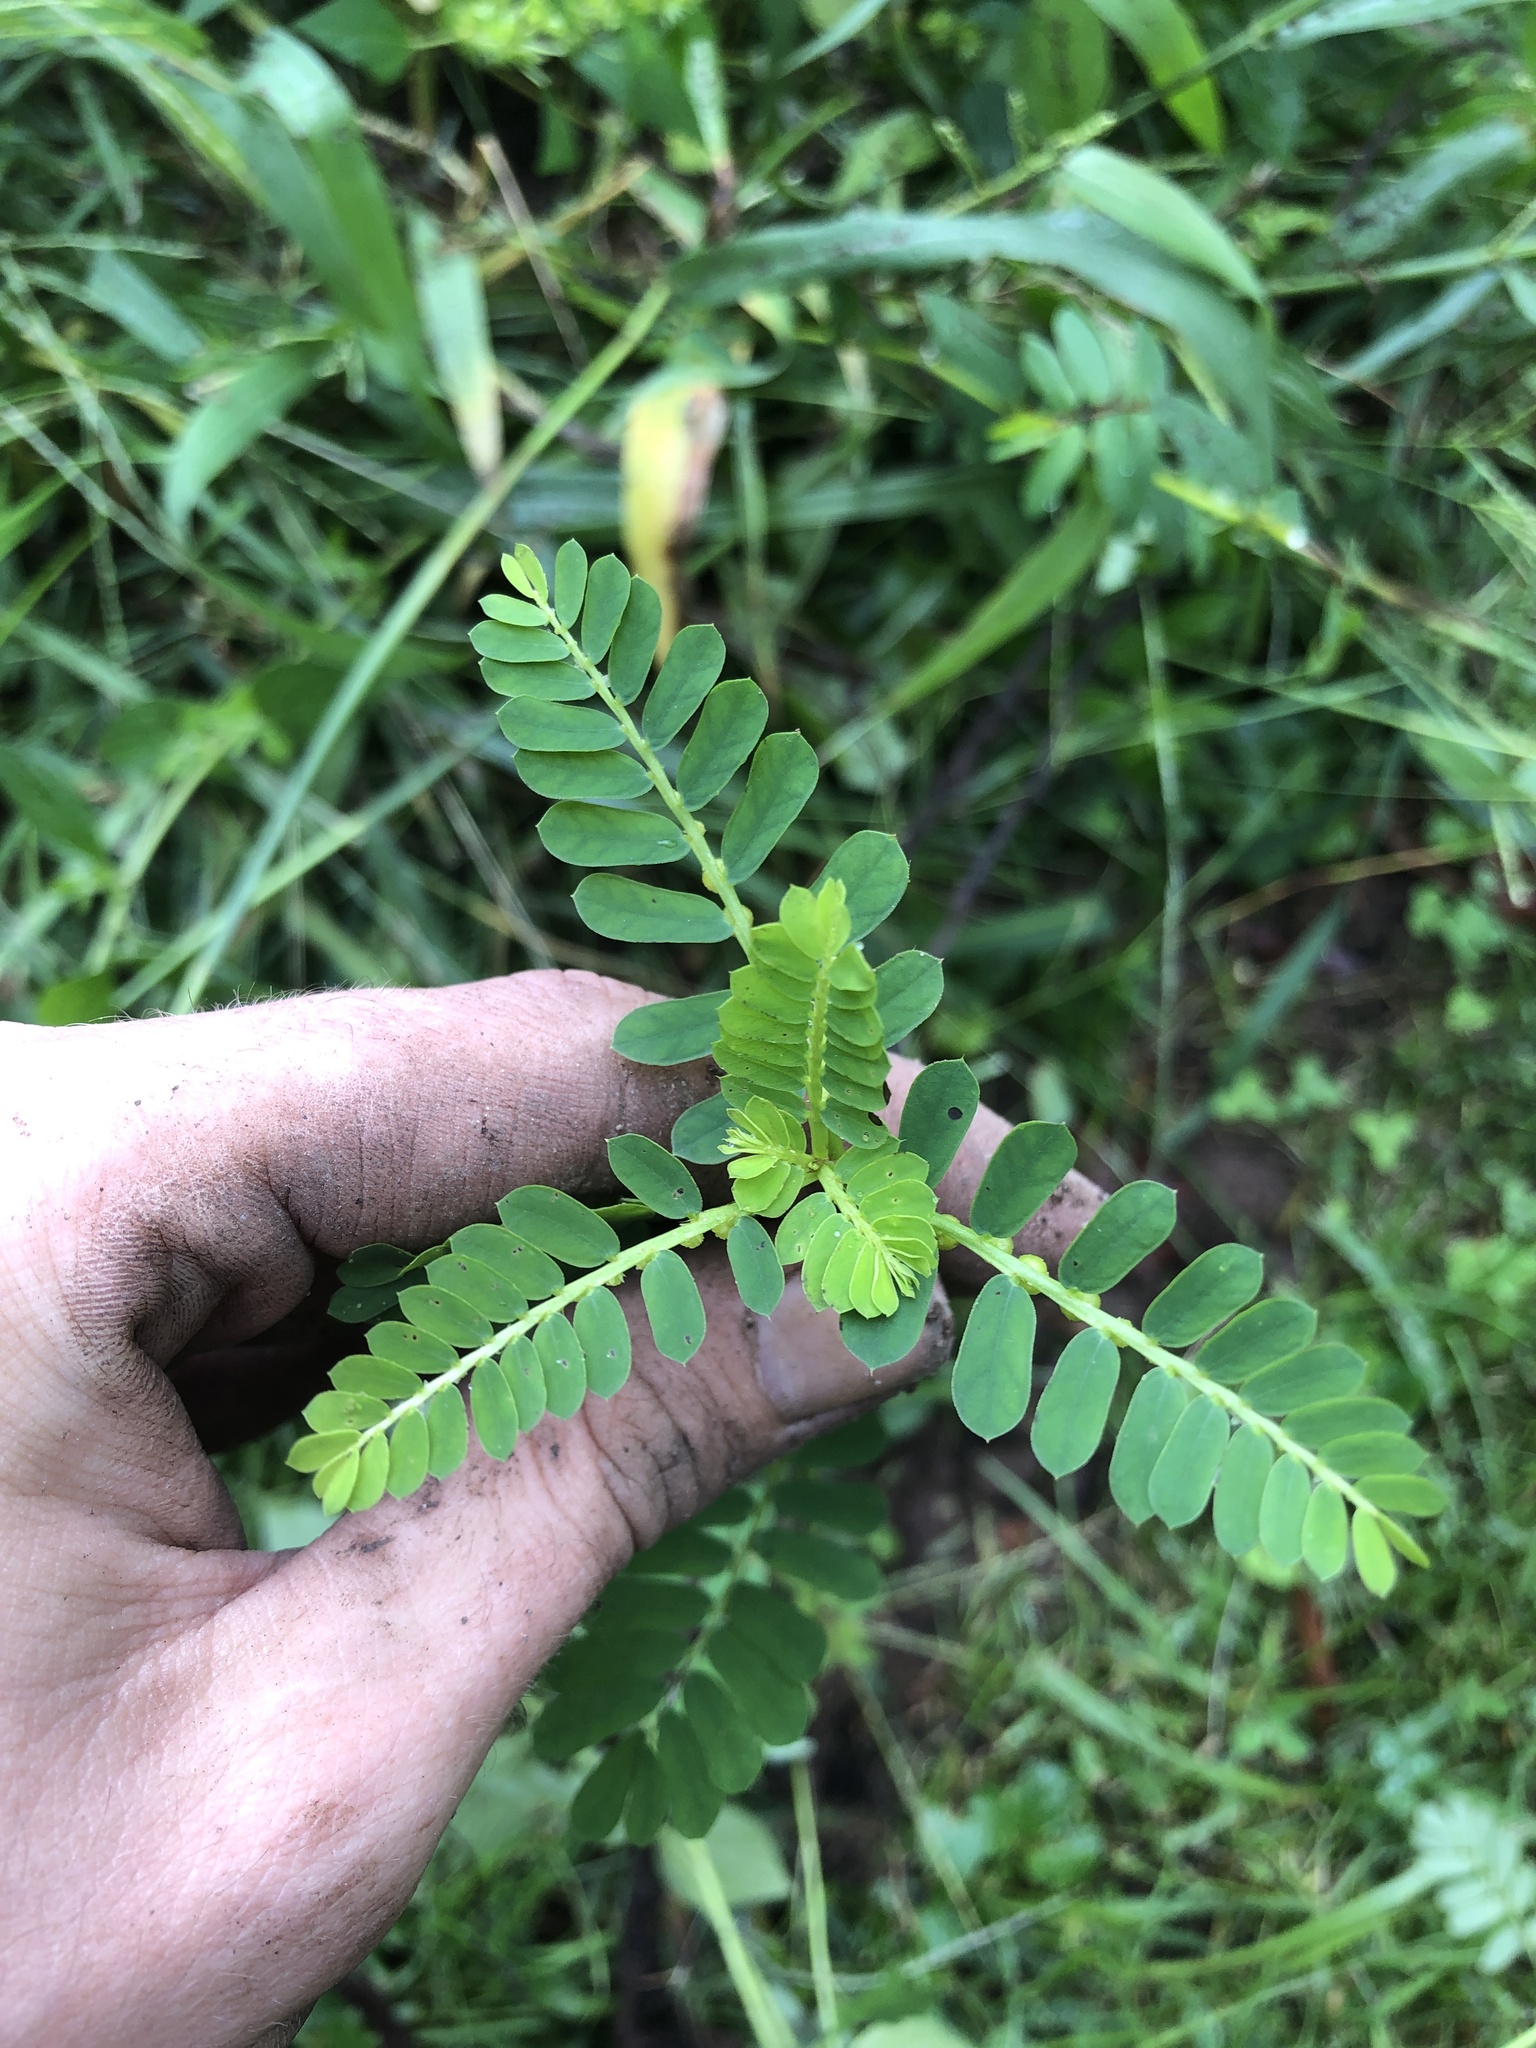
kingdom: Plantae
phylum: Tracheophyta
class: Magnoliopsida
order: Malpighiales
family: Phyllanthaceae
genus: Phyllanthus
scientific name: Phyllanthus urinaria
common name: Chamber bitter
